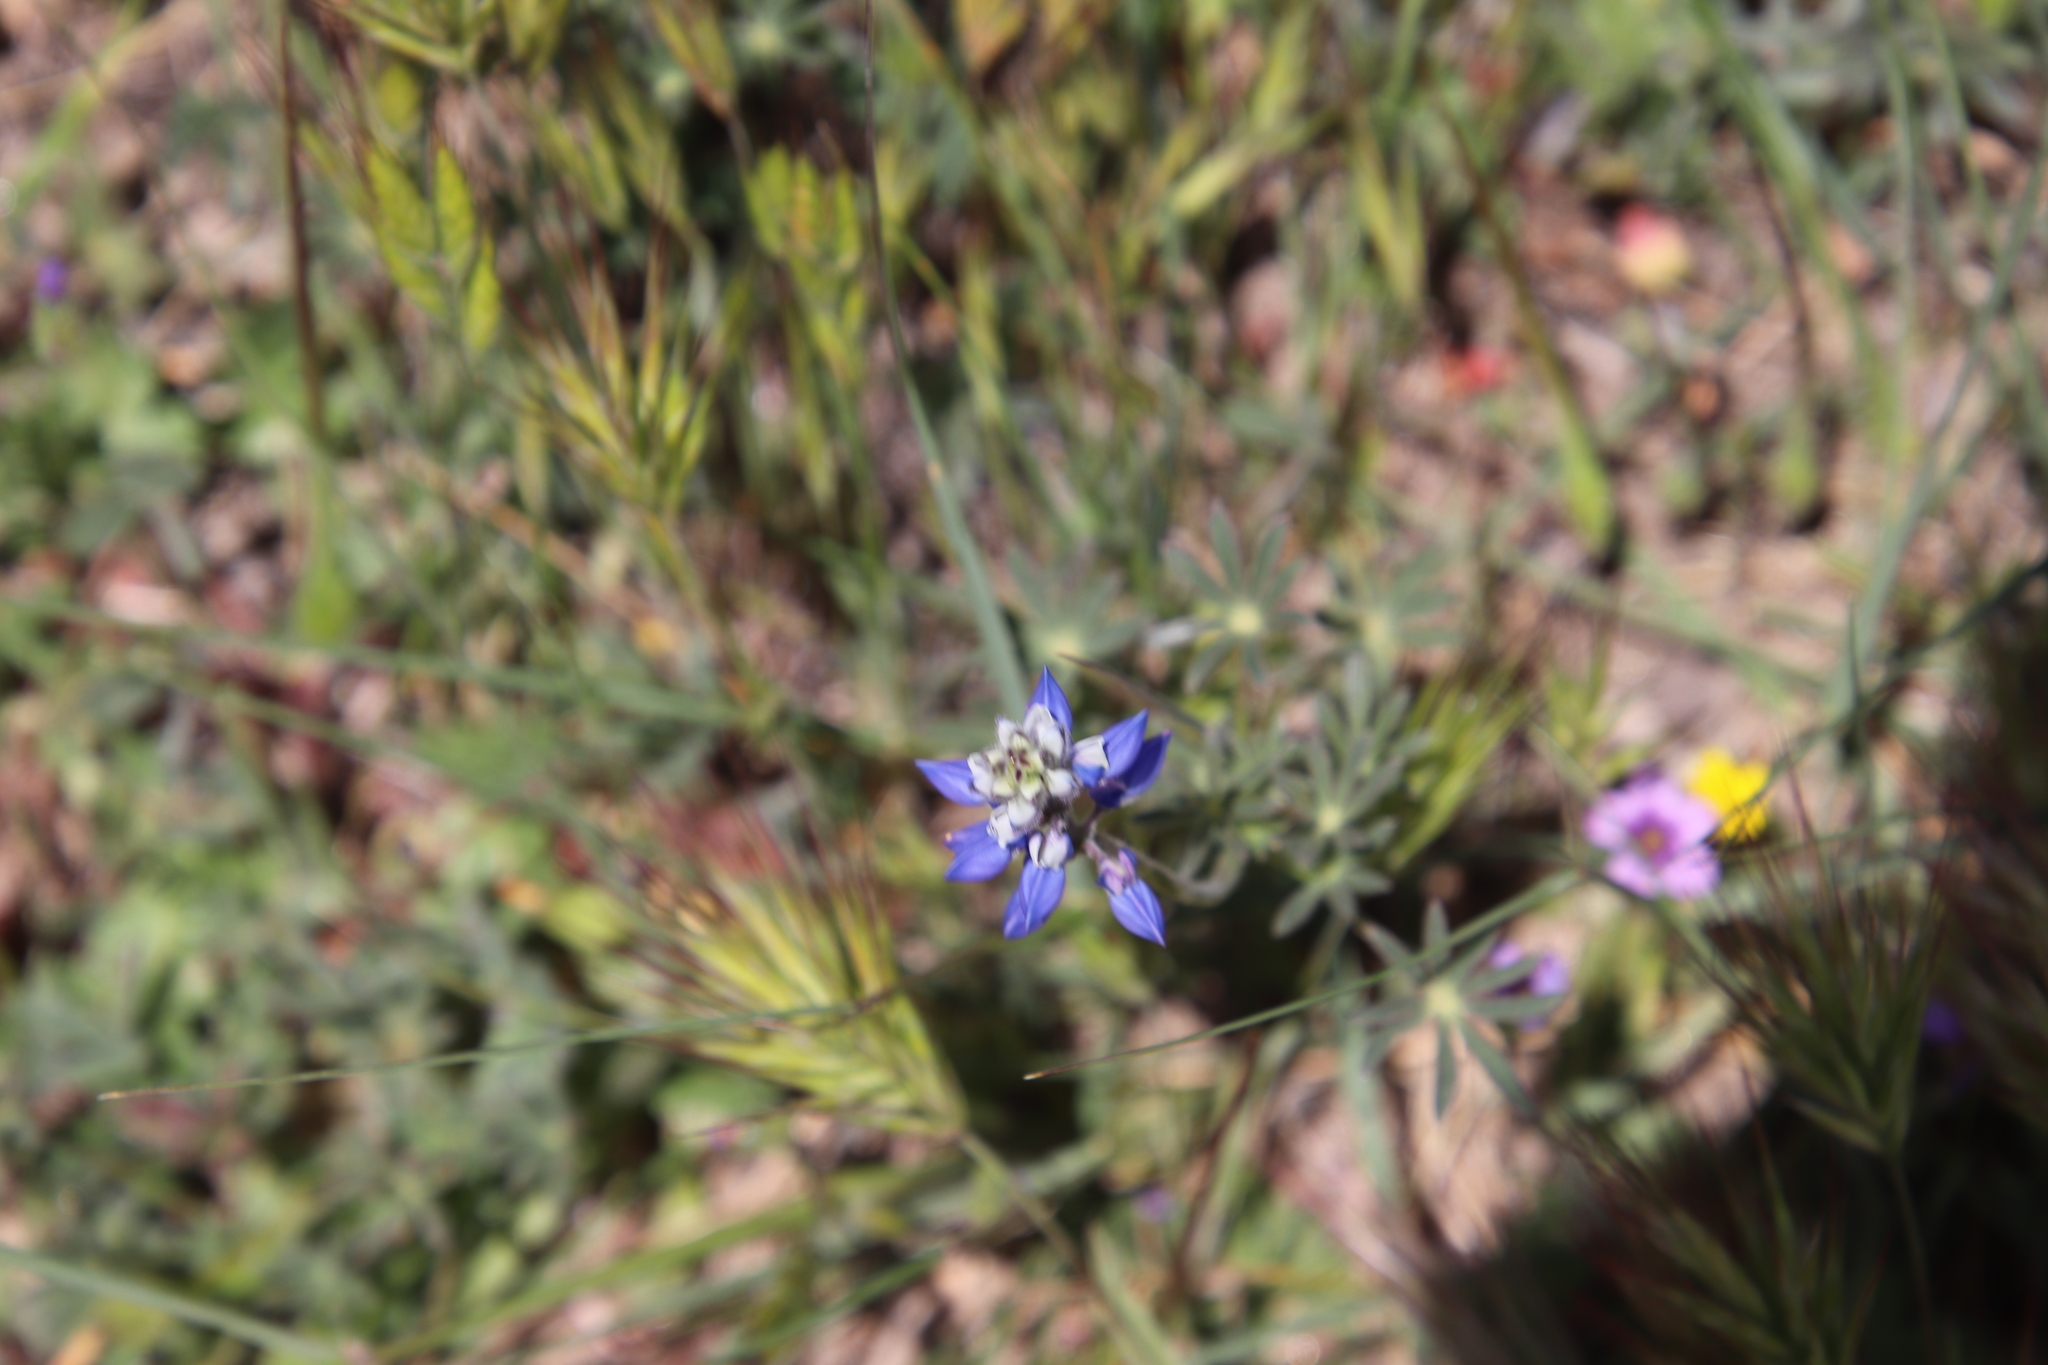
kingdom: Plantae
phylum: Tracheophyta
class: Magnoliopsida
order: Fabales
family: Fabaceae
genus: Lupinus
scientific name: Lupinus bicolor
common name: Miniature lupine
